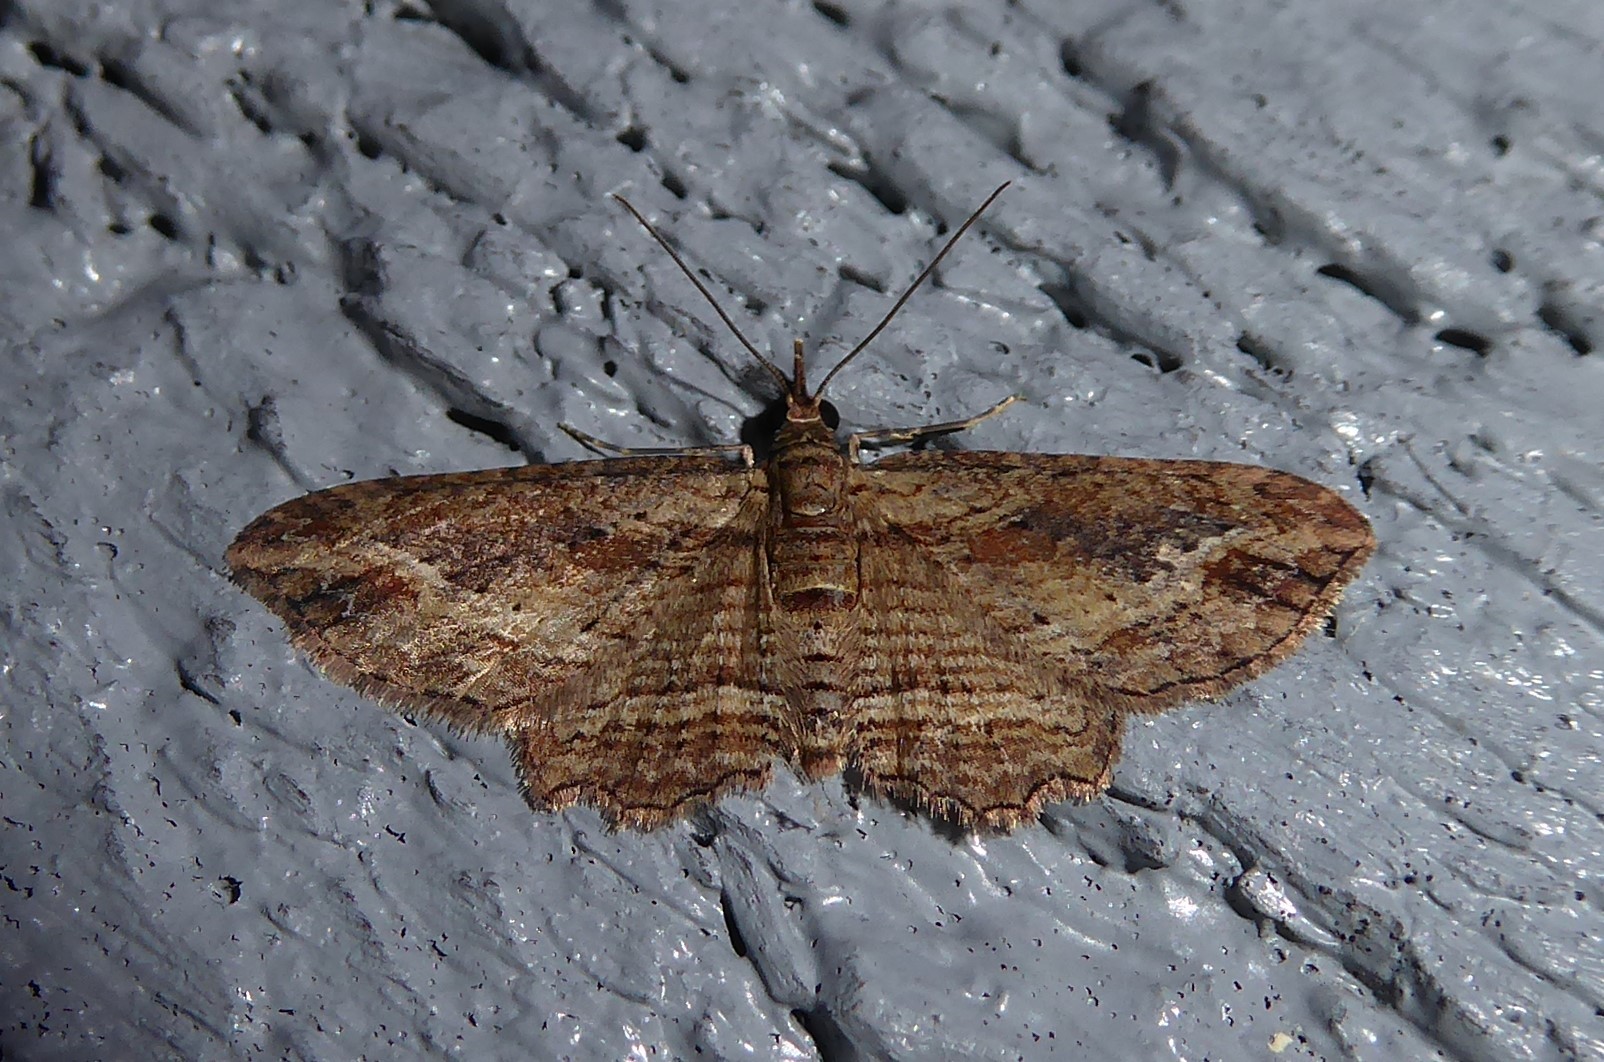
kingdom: Animalia
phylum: Arthropoda
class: Insecta
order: Lepidoptera
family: Geometridae
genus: Chloroclystis
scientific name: Chloroclystis filata
